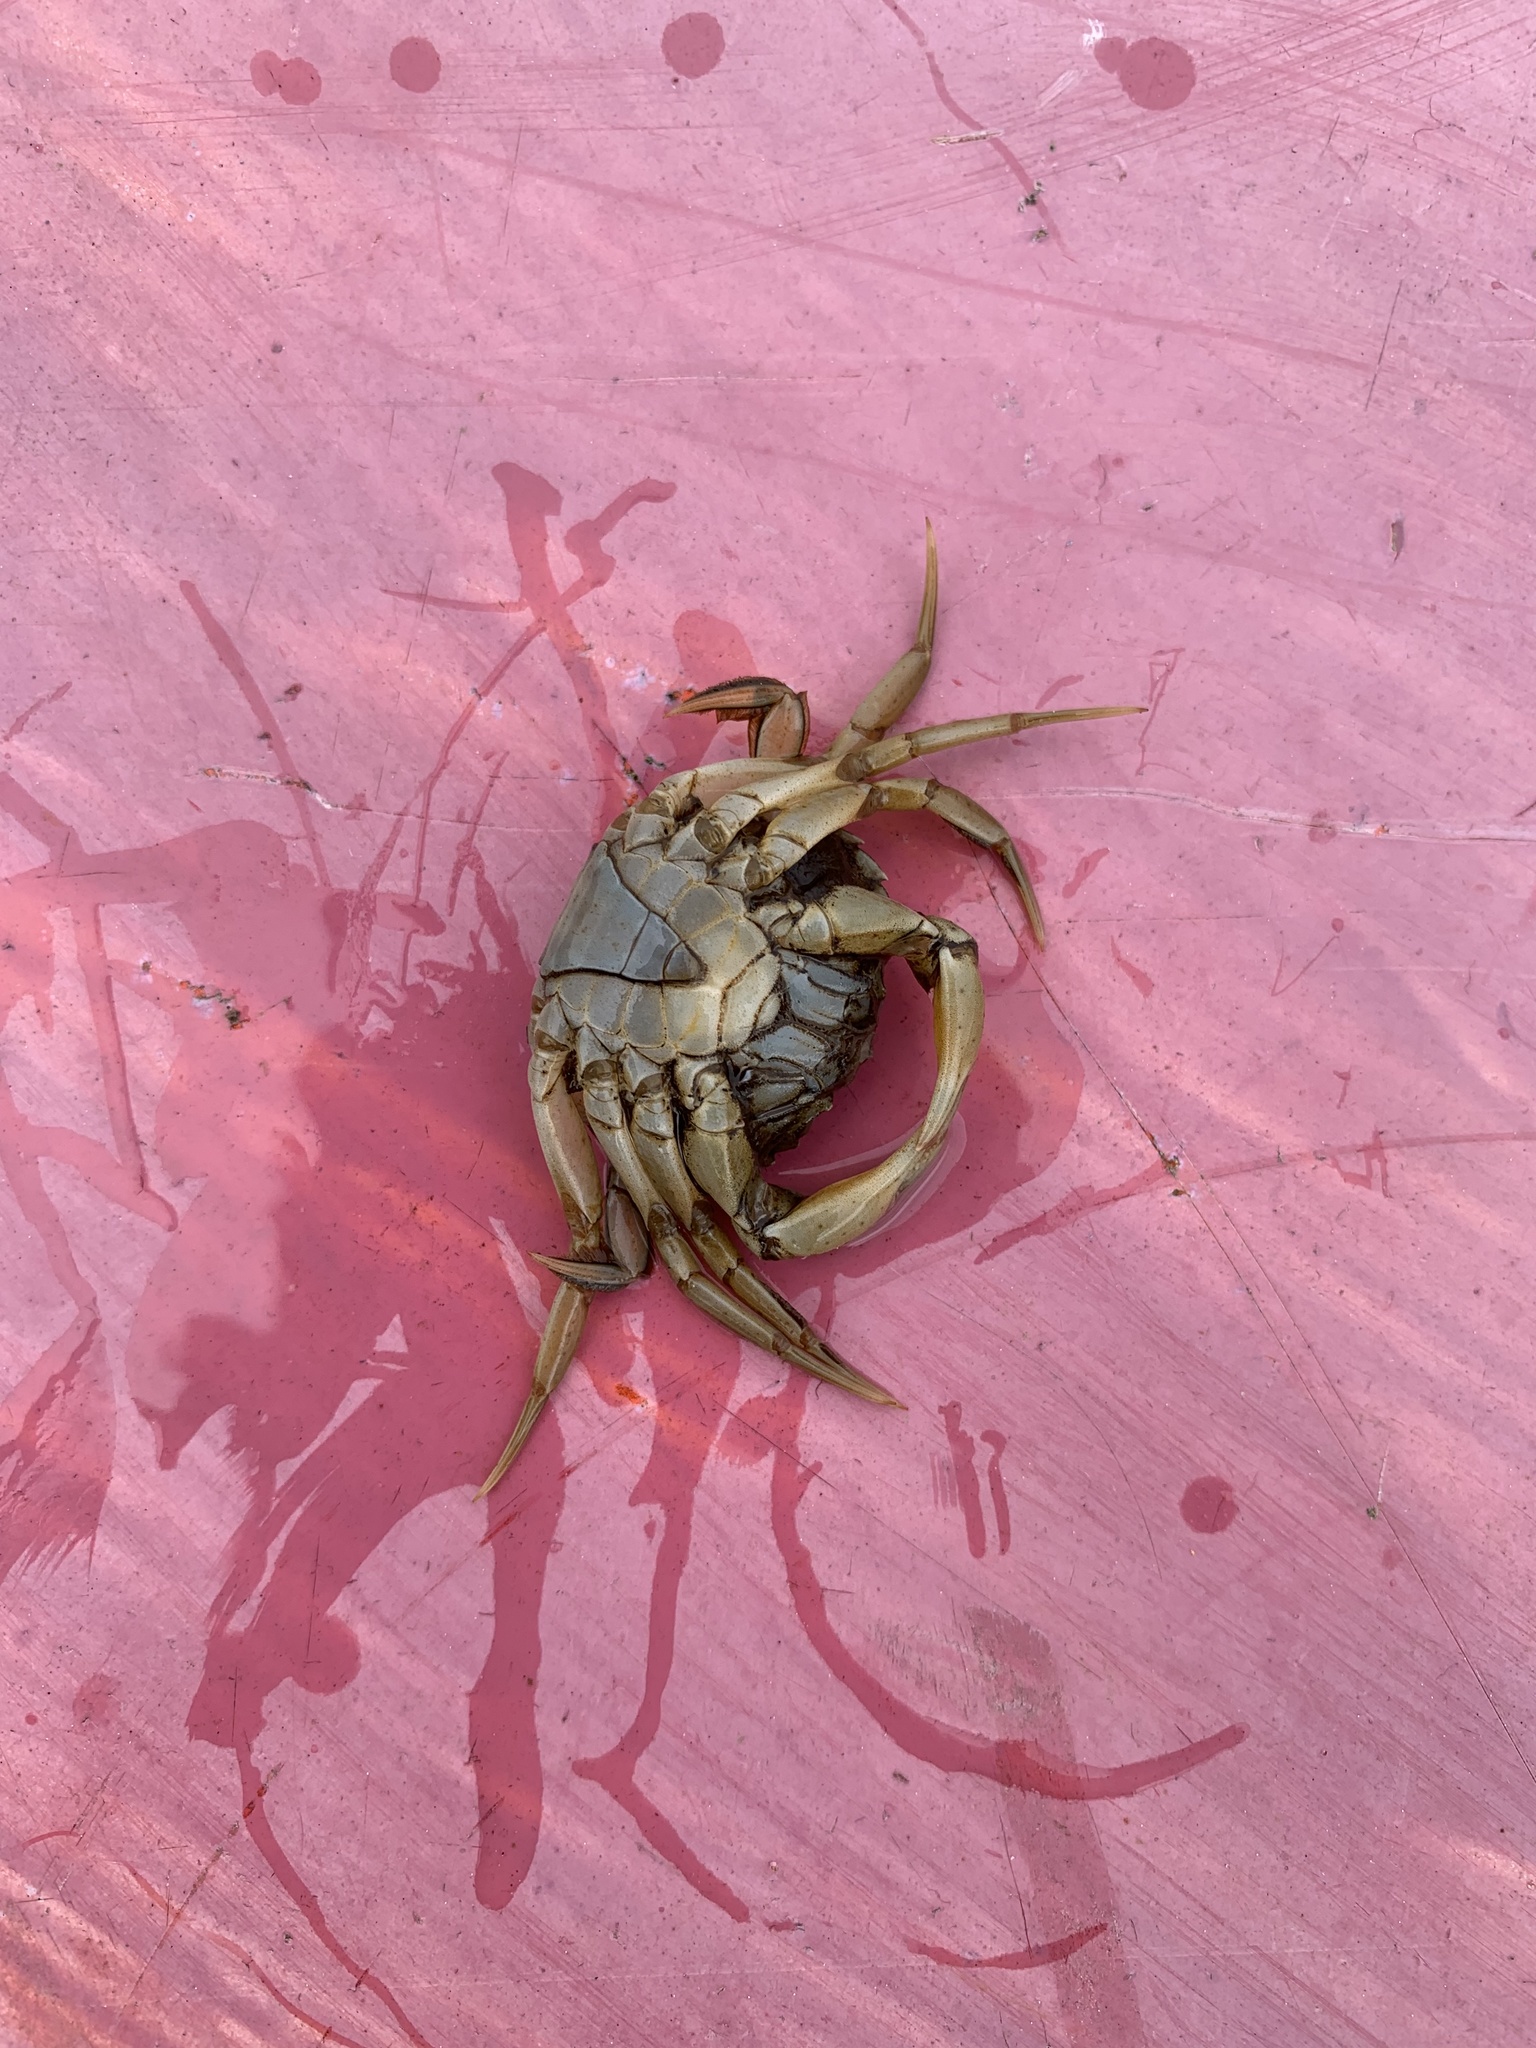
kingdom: Animalia
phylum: Arthropoda
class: Malacostraca
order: Decapoda
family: Carcinidae
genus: Carcinus
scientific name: Carcinus maenas
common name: European green crab
